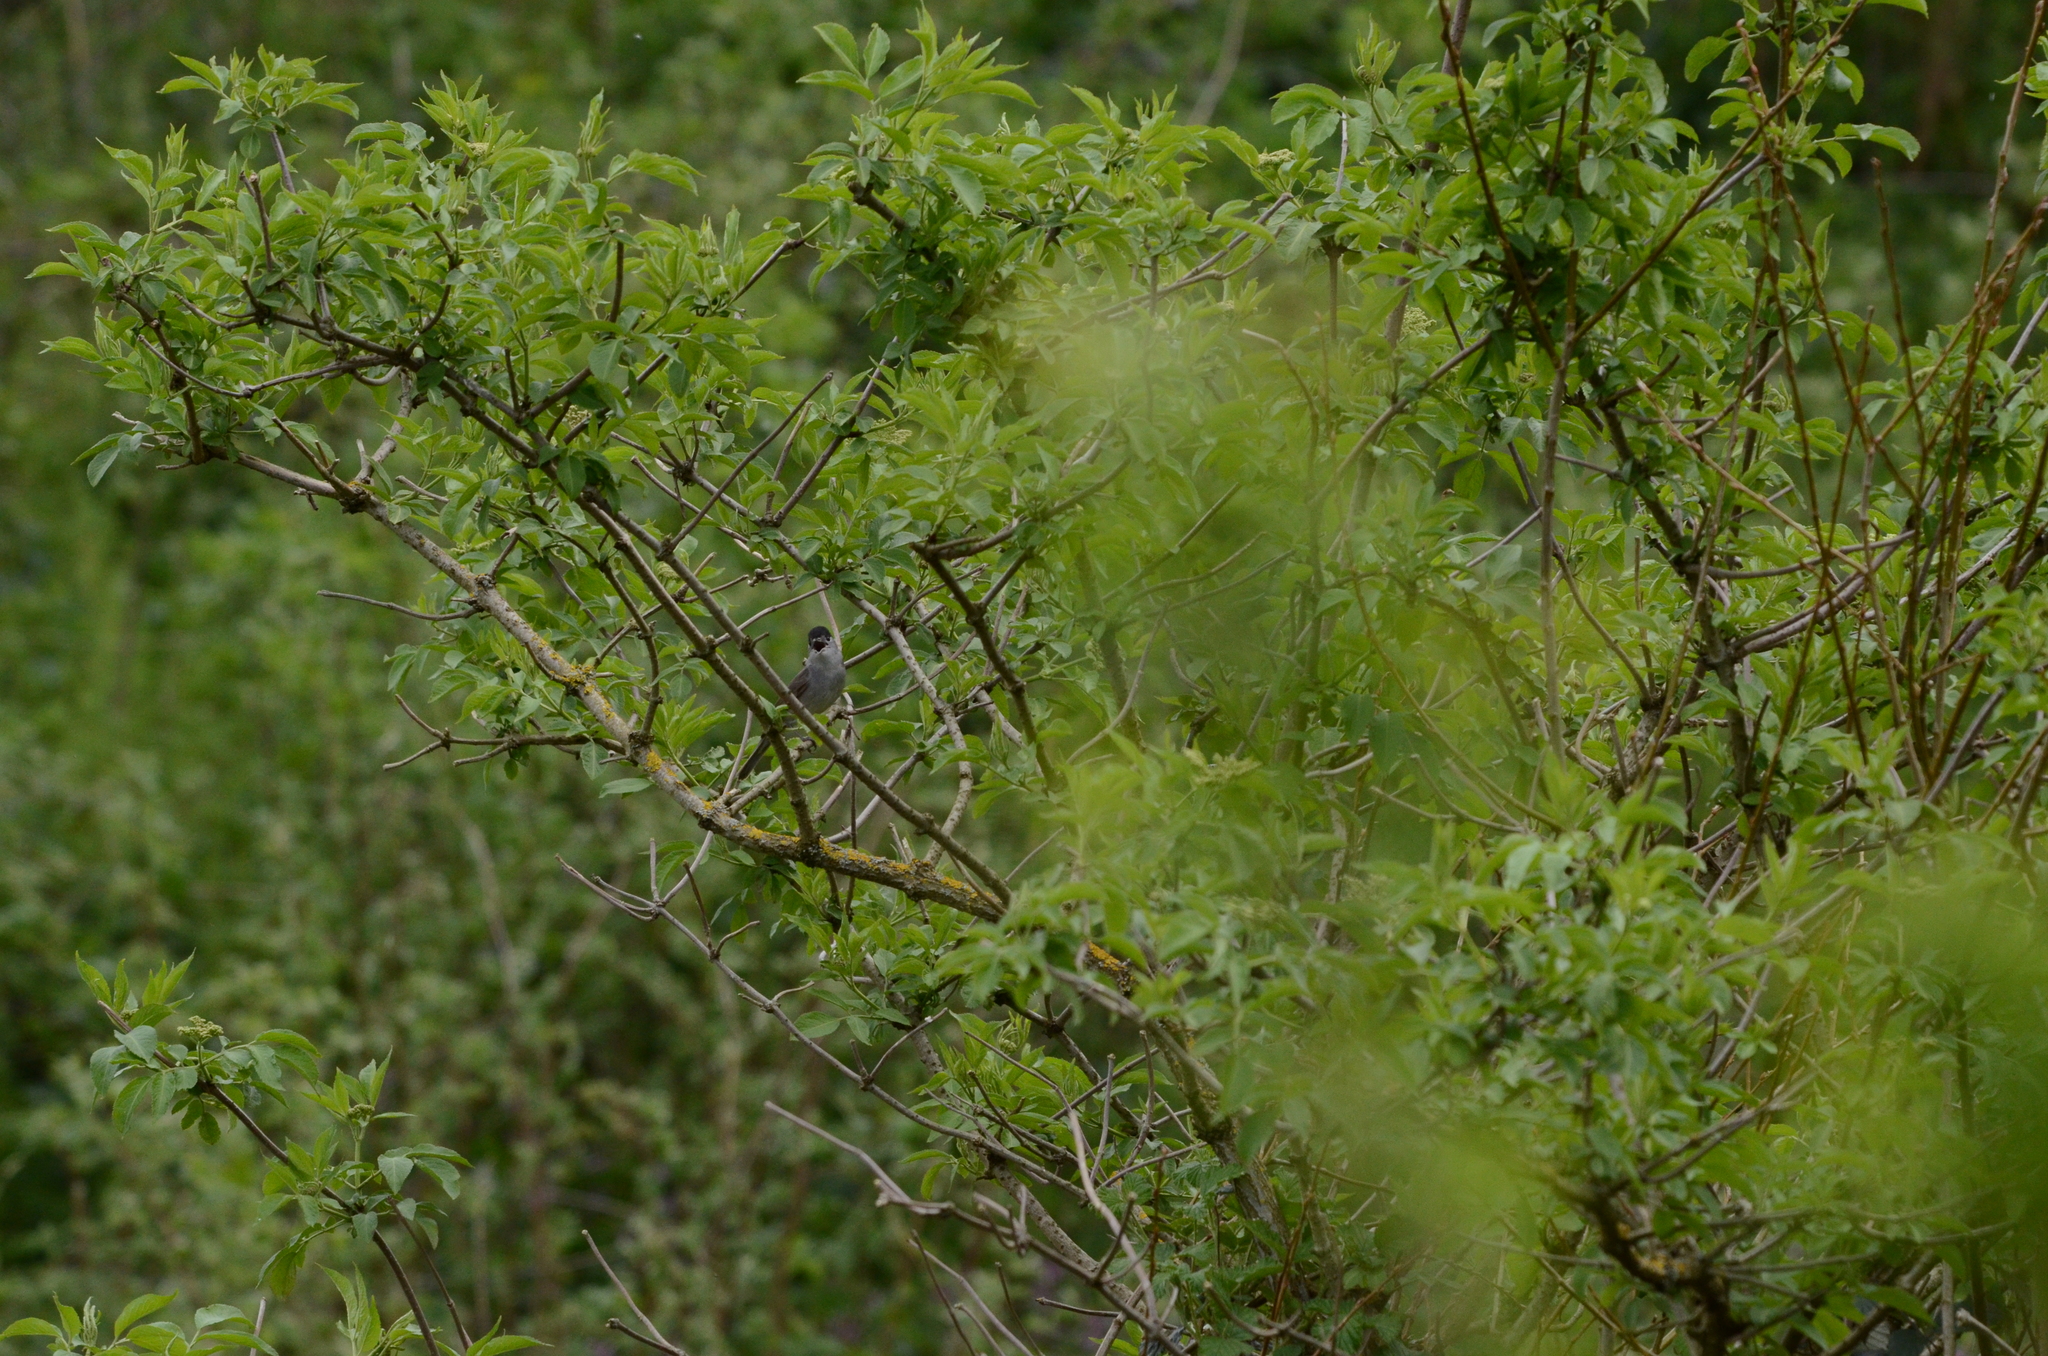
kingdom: Animalia
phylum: Chordata
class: Aves
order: Passeriformes
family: Sylviidae
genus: Sylvia
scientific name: Sylvia atricapilla
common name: Eurasian blackcap
